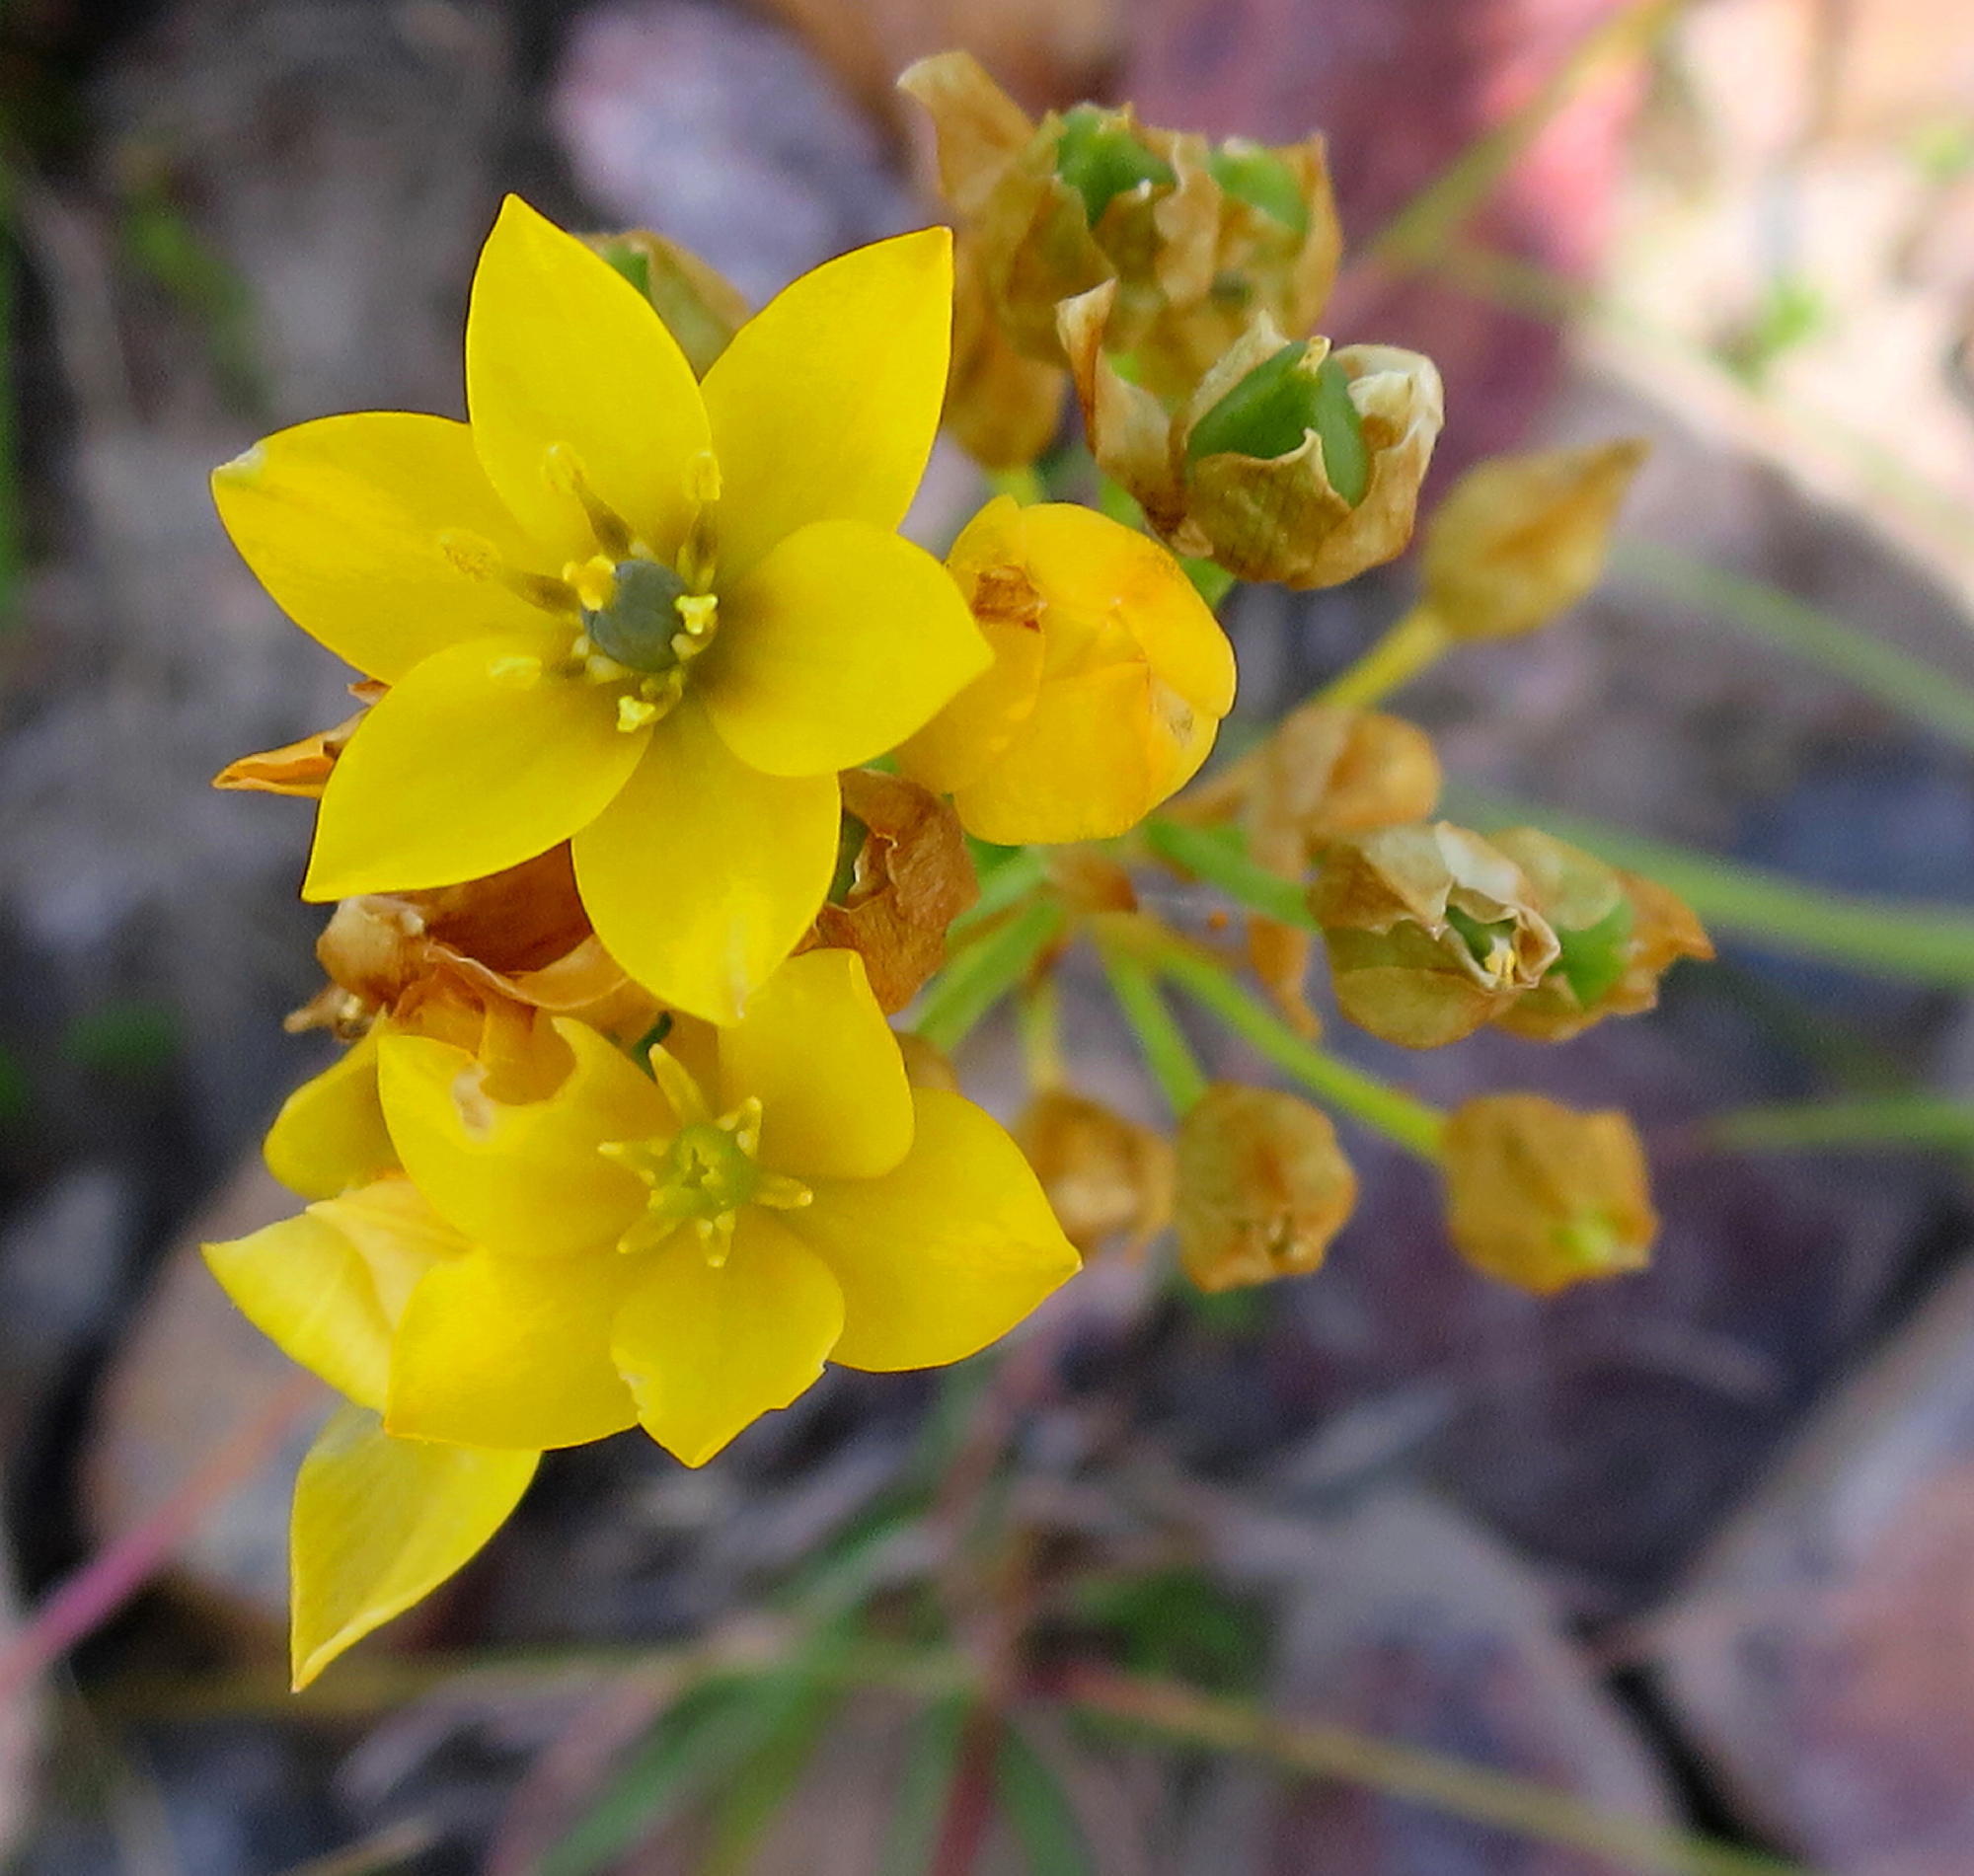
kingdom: Plantae
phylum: Tracheophyta
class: Liliopsida
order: Asparagales
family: Asparagaceae
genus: Ornithogalum
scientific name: Ornithogalum dubium
